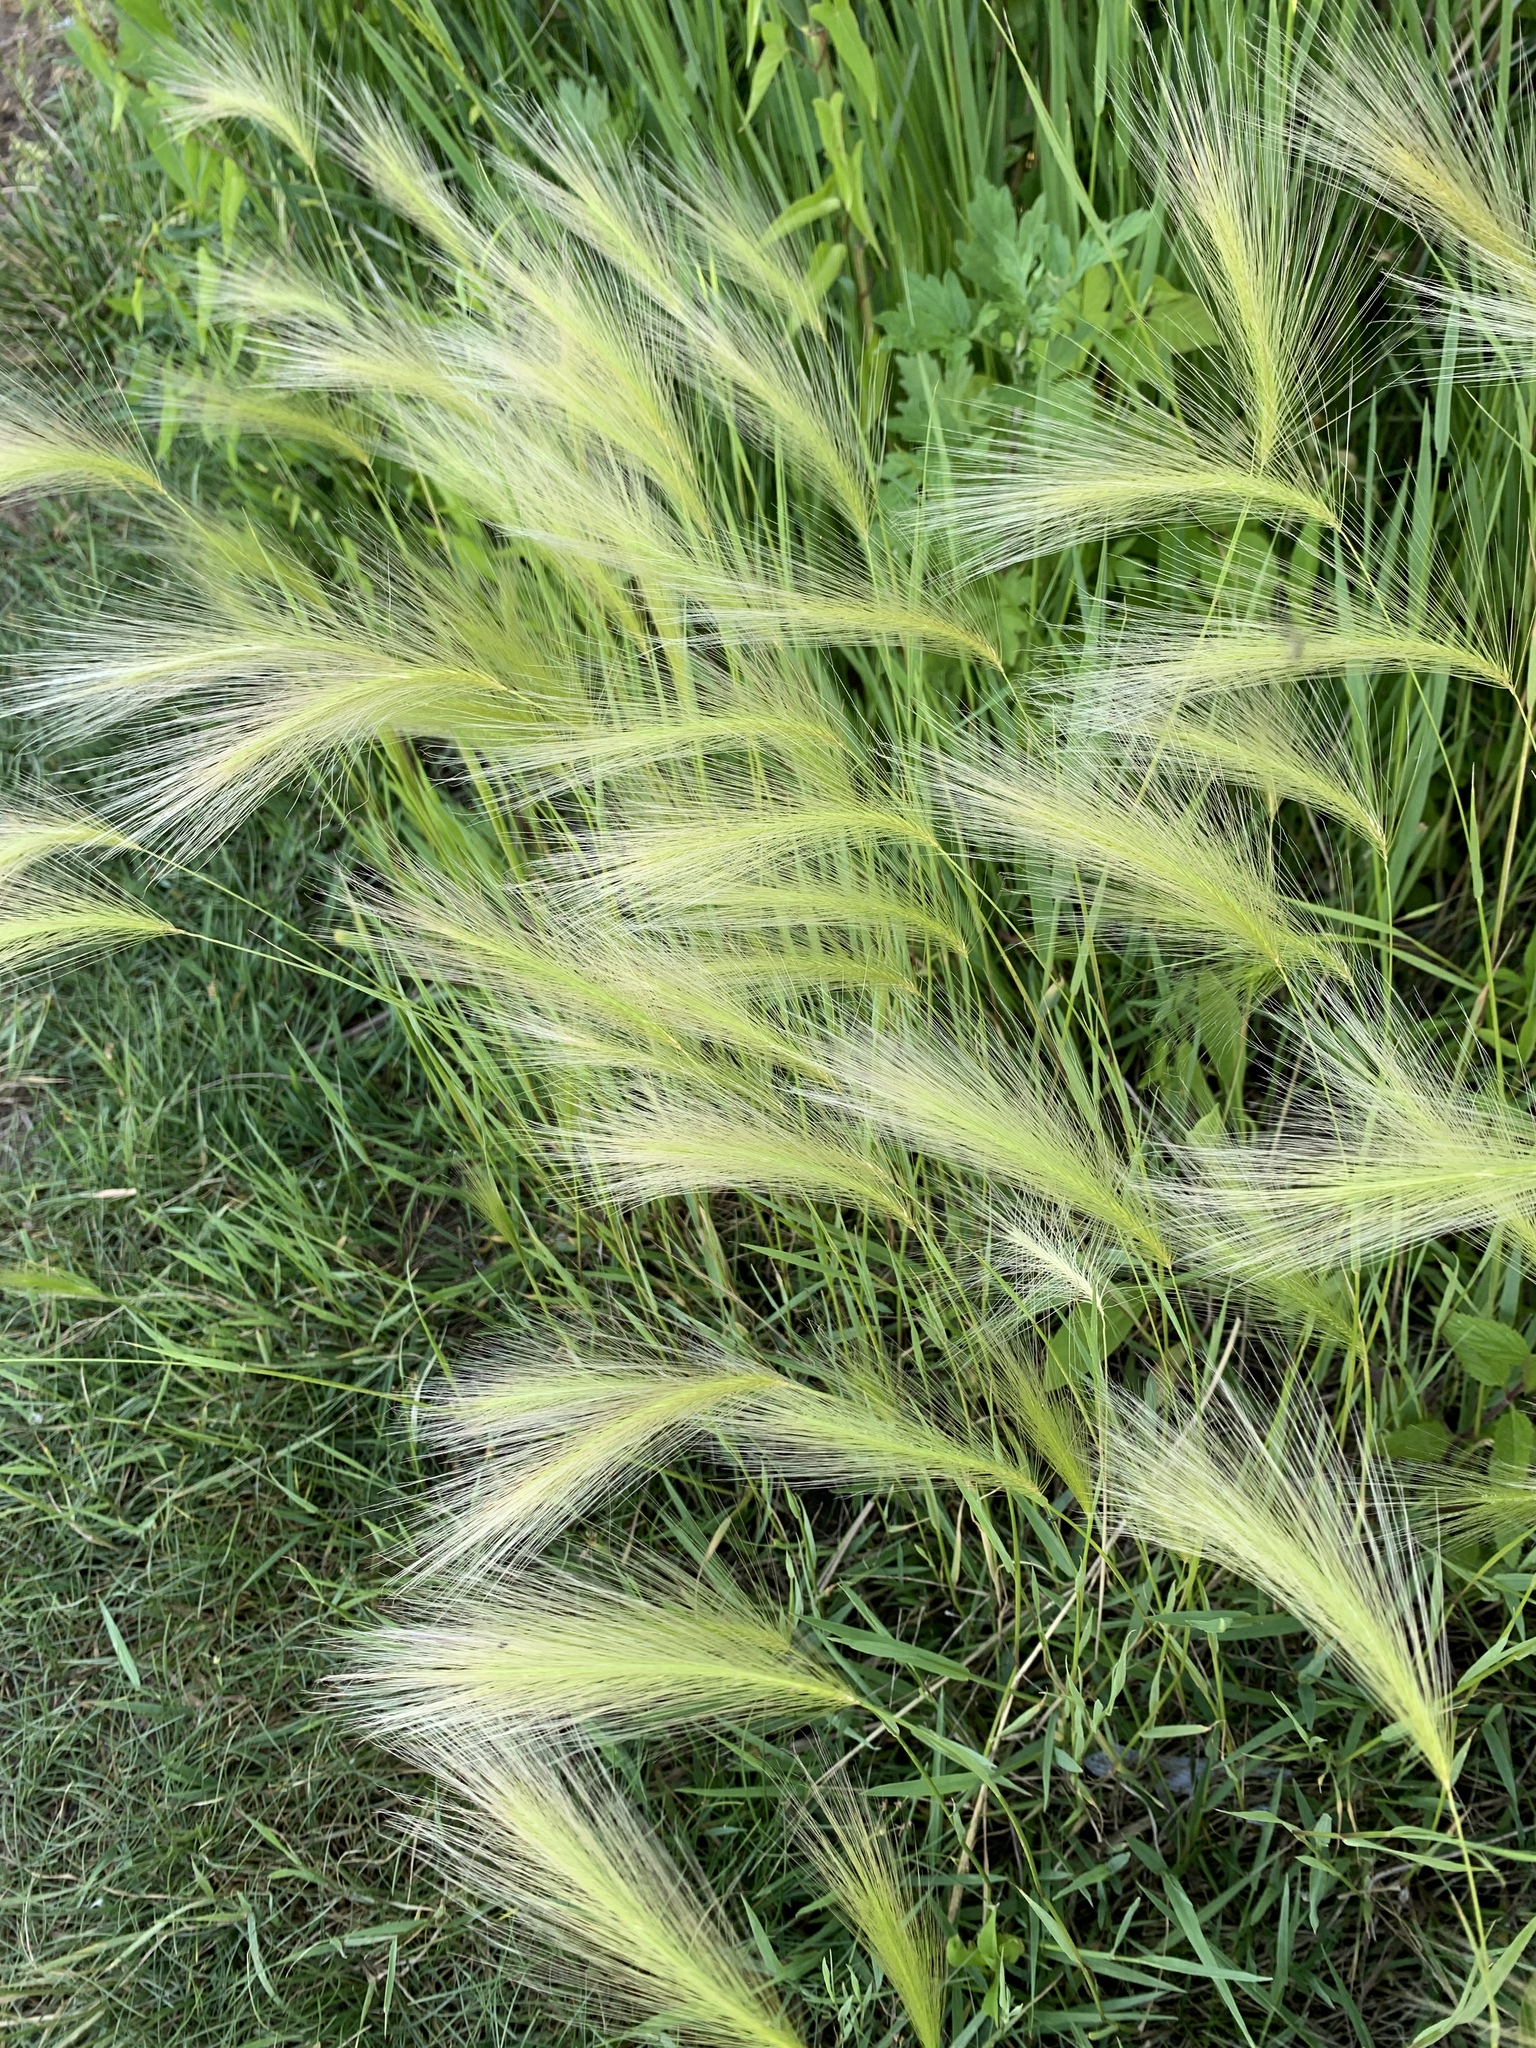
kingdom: Plantae
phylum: Tracheophyta
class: Liliopsida
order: Poales
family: Poaceae
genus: Hordeum
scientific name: Hordeum jubatum
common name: Foxtail barley
